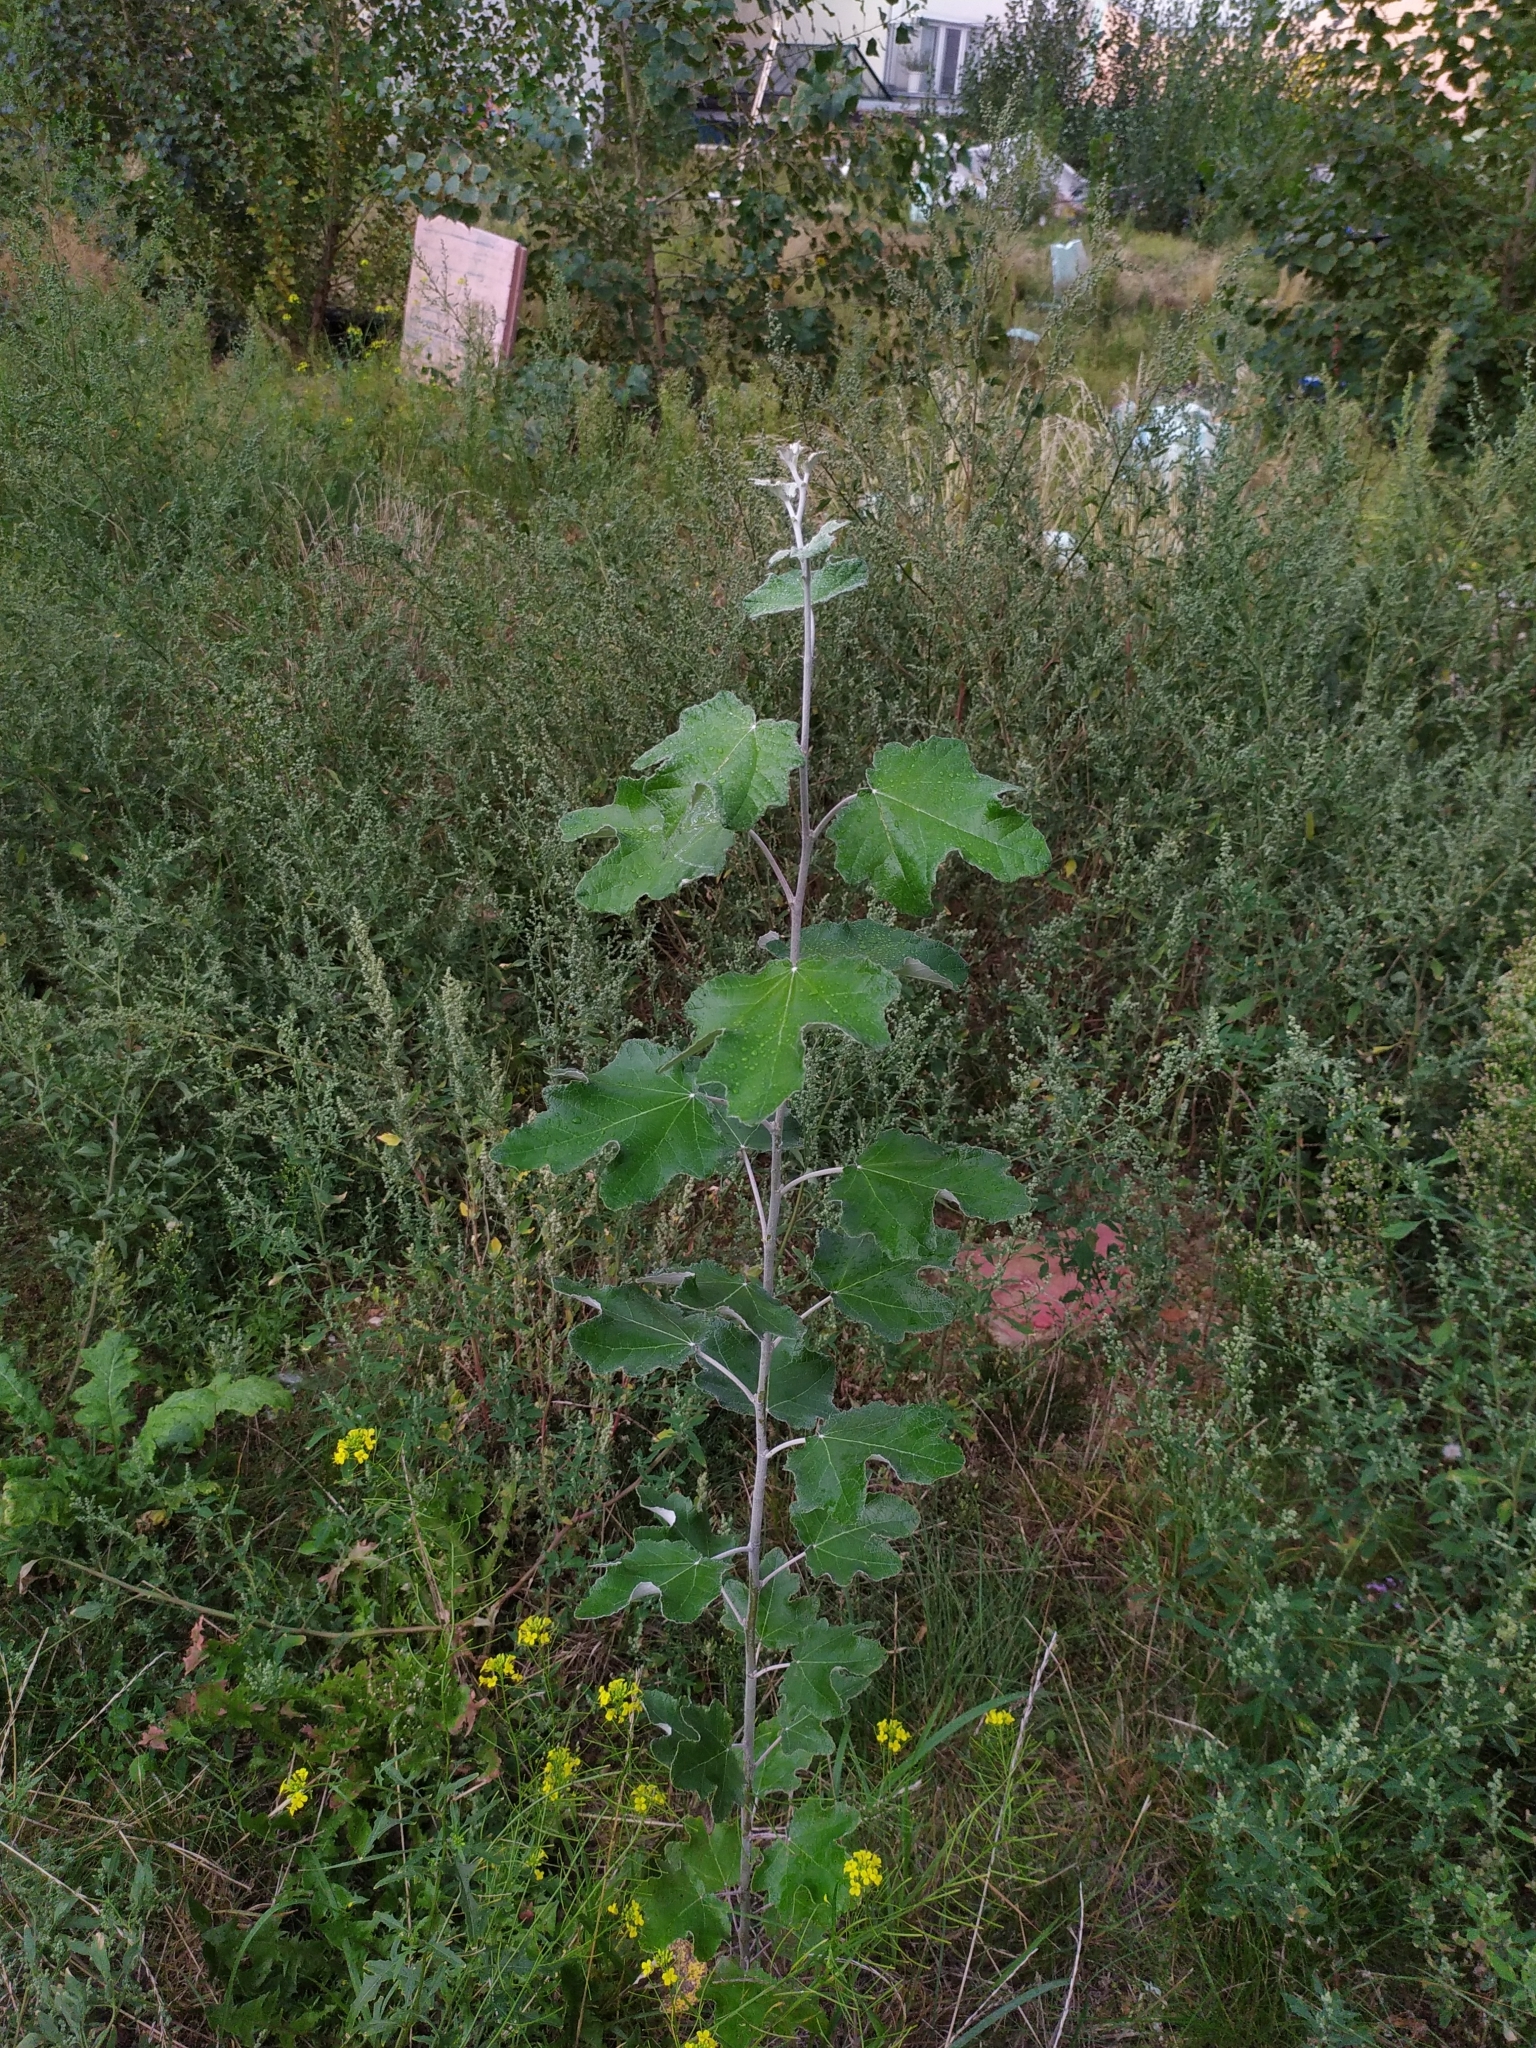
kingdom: Plantae
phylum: Tracheophyta
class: Magnoliopsida
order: Malpighiales
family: Salicaceae
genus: Populus
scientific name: Populus alba
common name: White poplar
